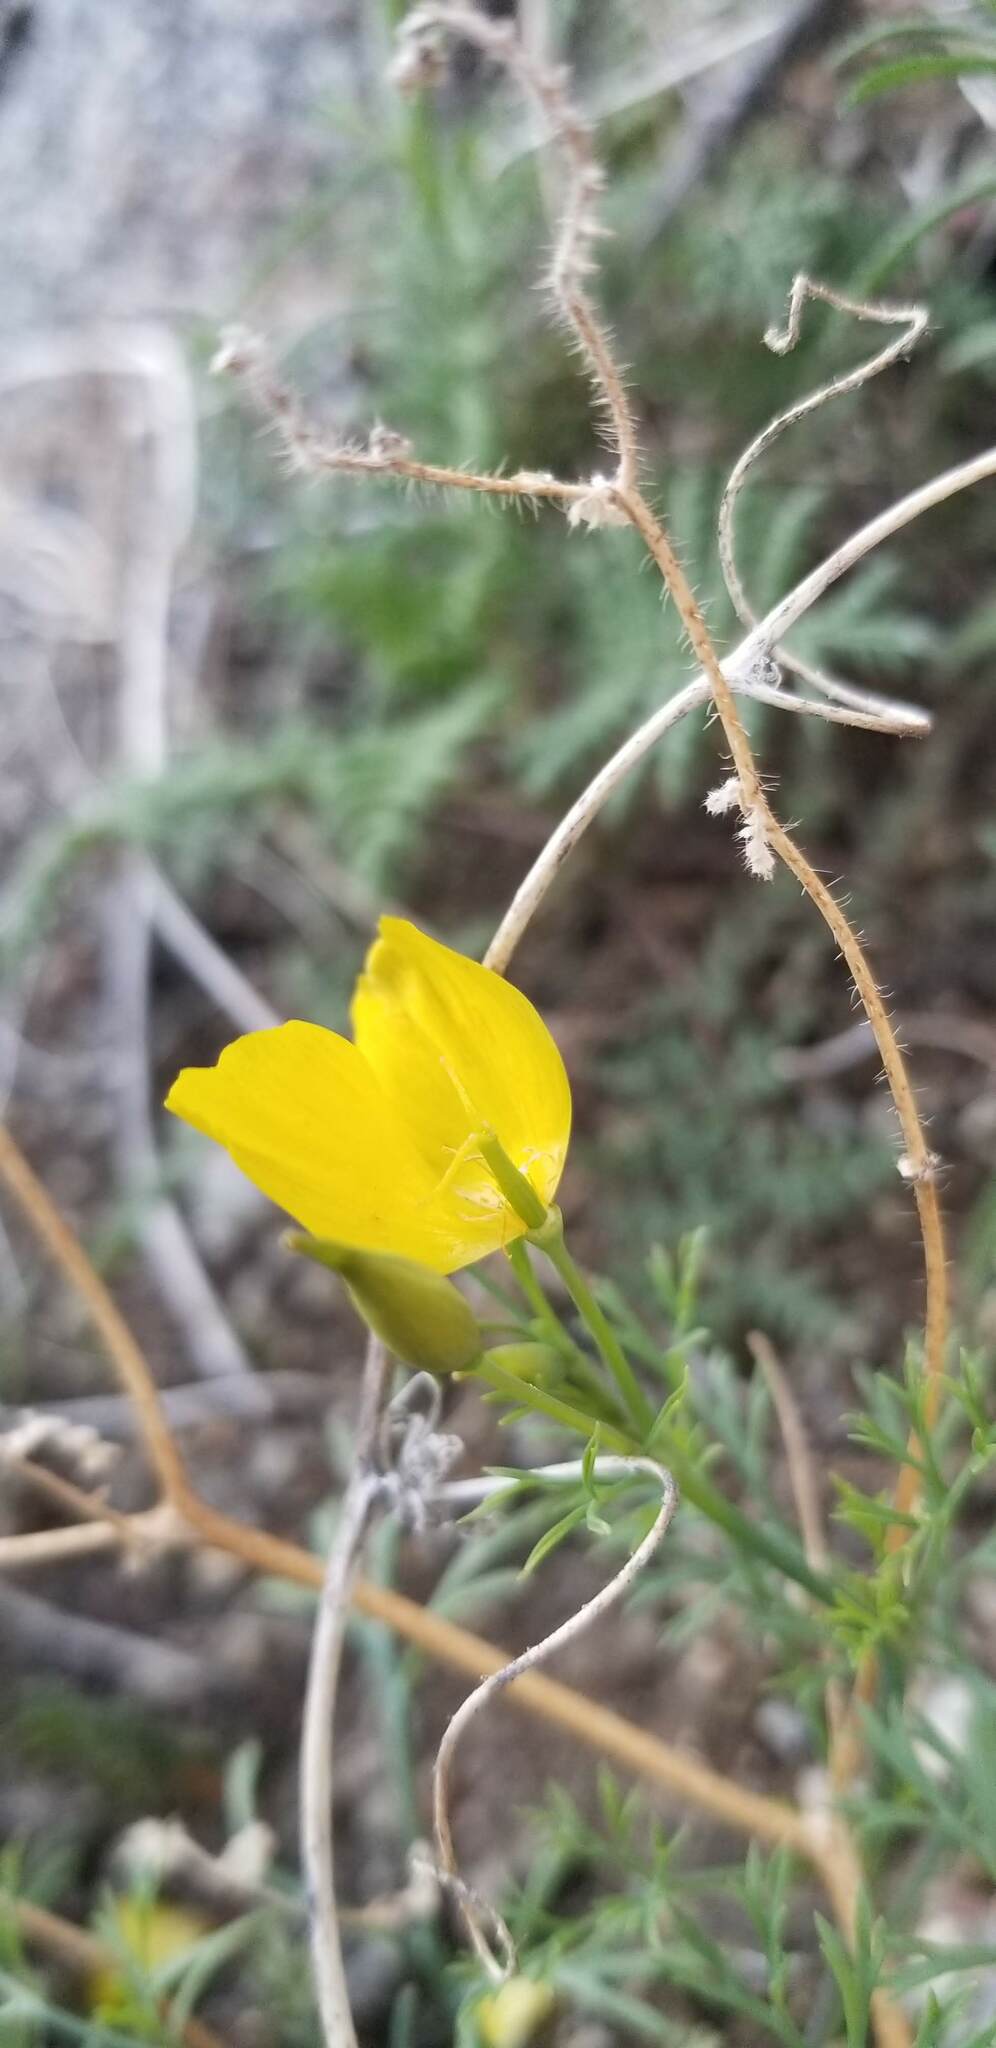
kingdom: Plantae
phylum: Tracheophyta
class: Magnoliopsida
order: Ranunculales
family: Papaveraceae
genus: Eschscholzia
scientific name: Eschscholzia parishii
